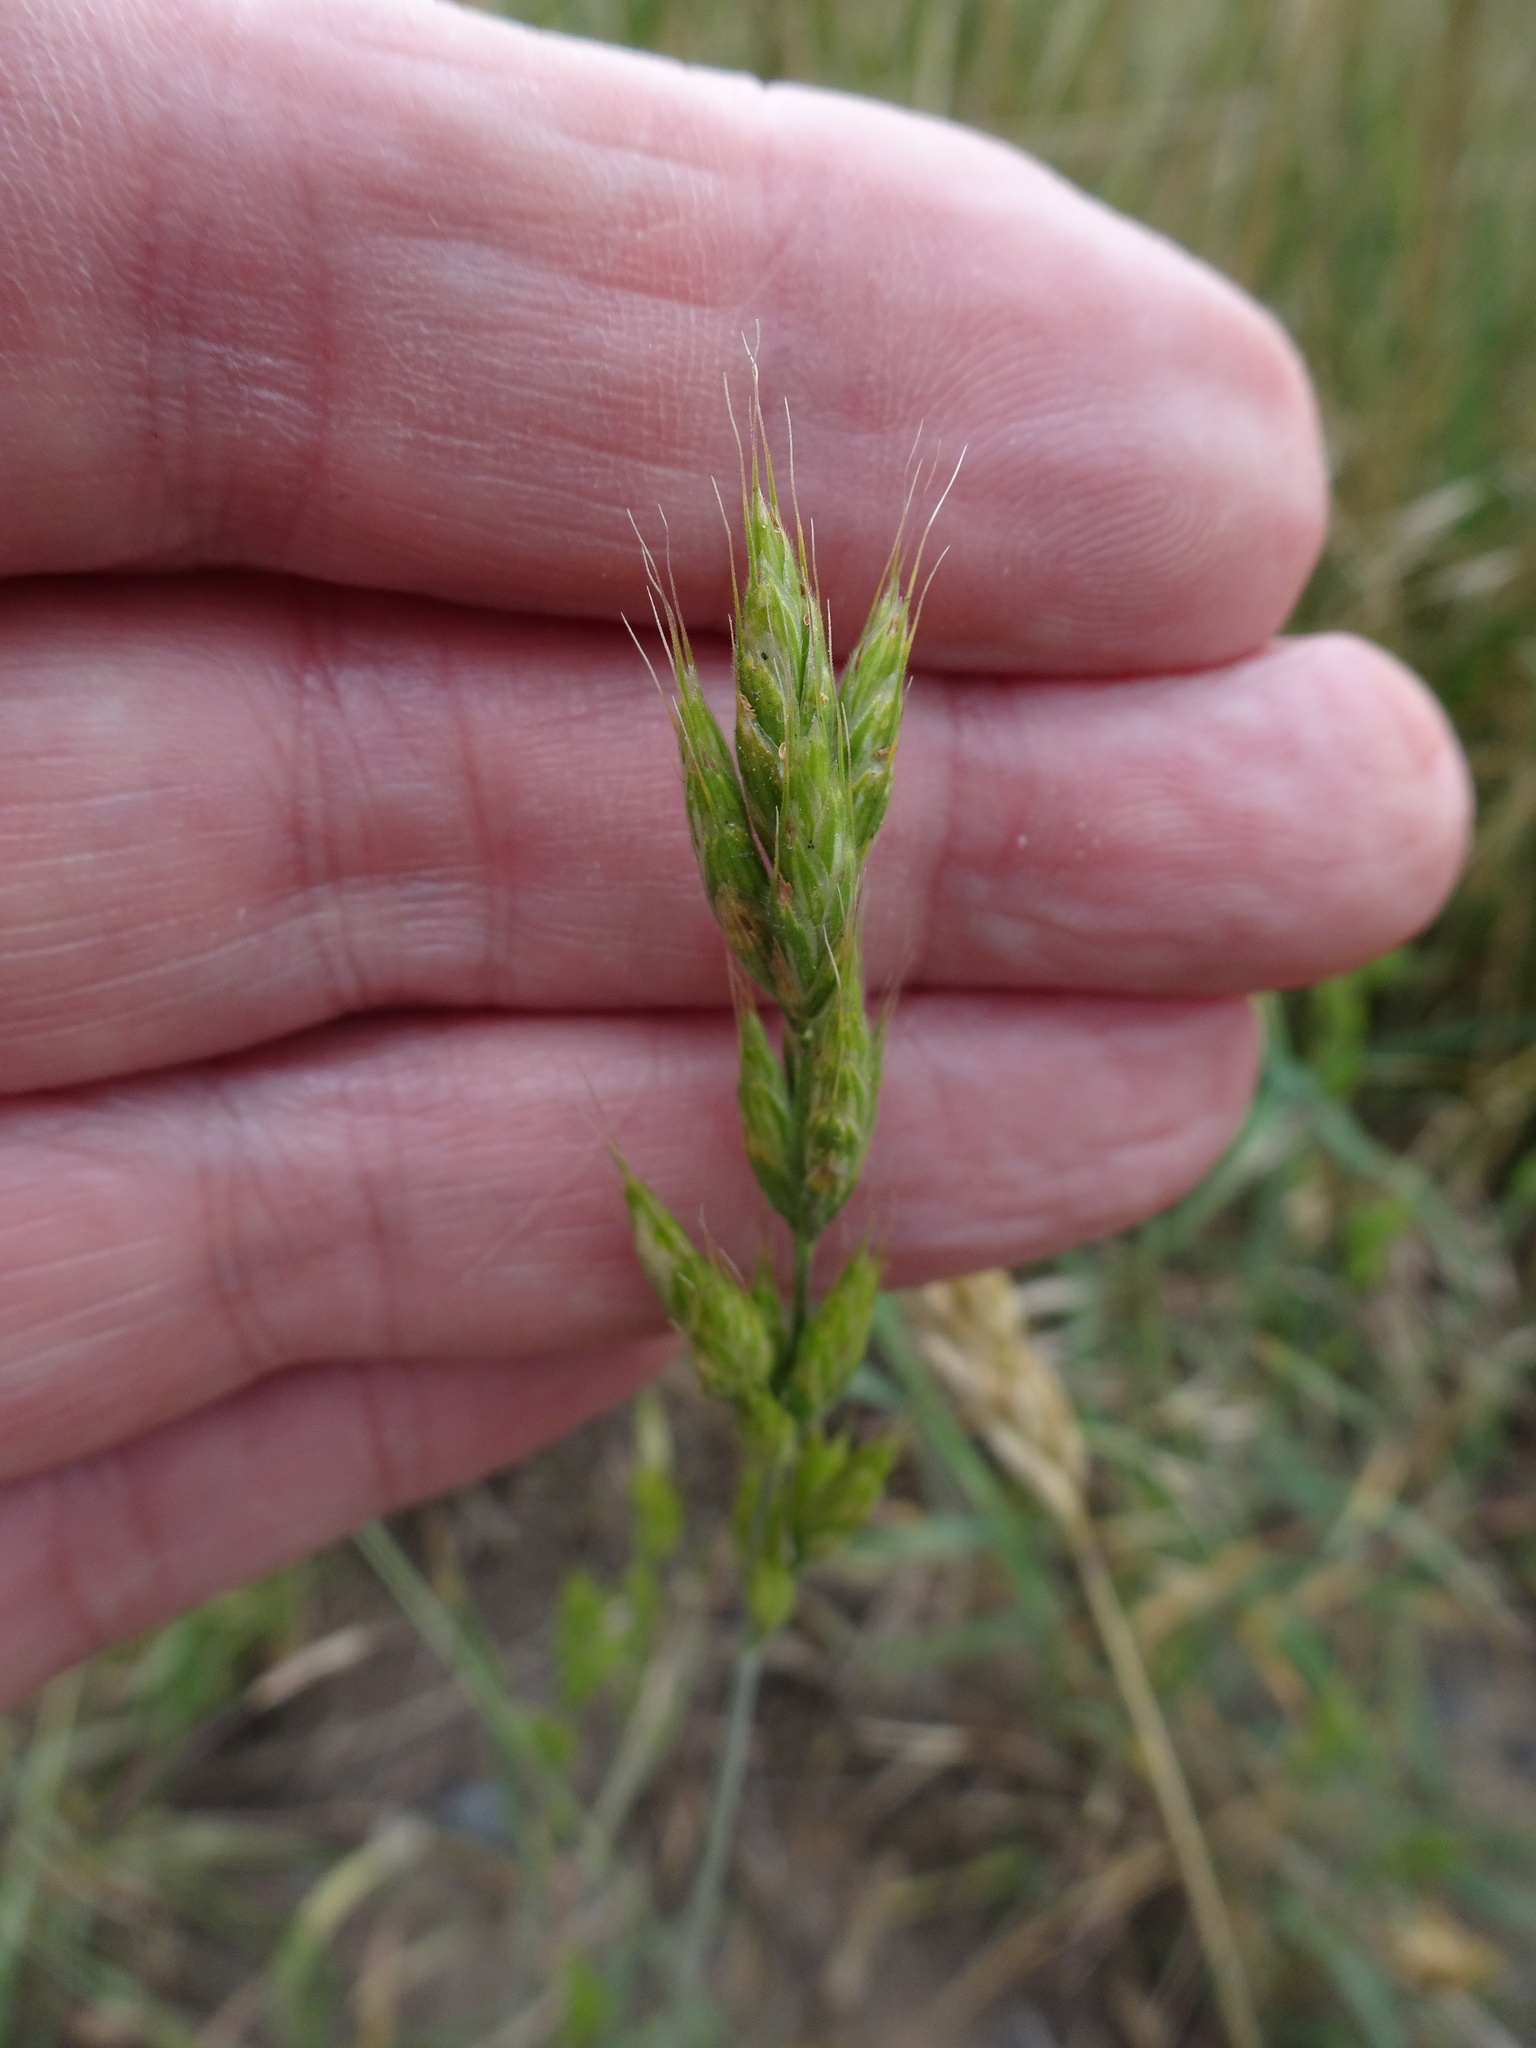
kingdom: Plantae
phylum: Tracheophyta
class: Liliopsida
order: Poales
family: Poaceae
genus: Bromus
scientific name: Bromus hordeaceus
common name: Soft brome
